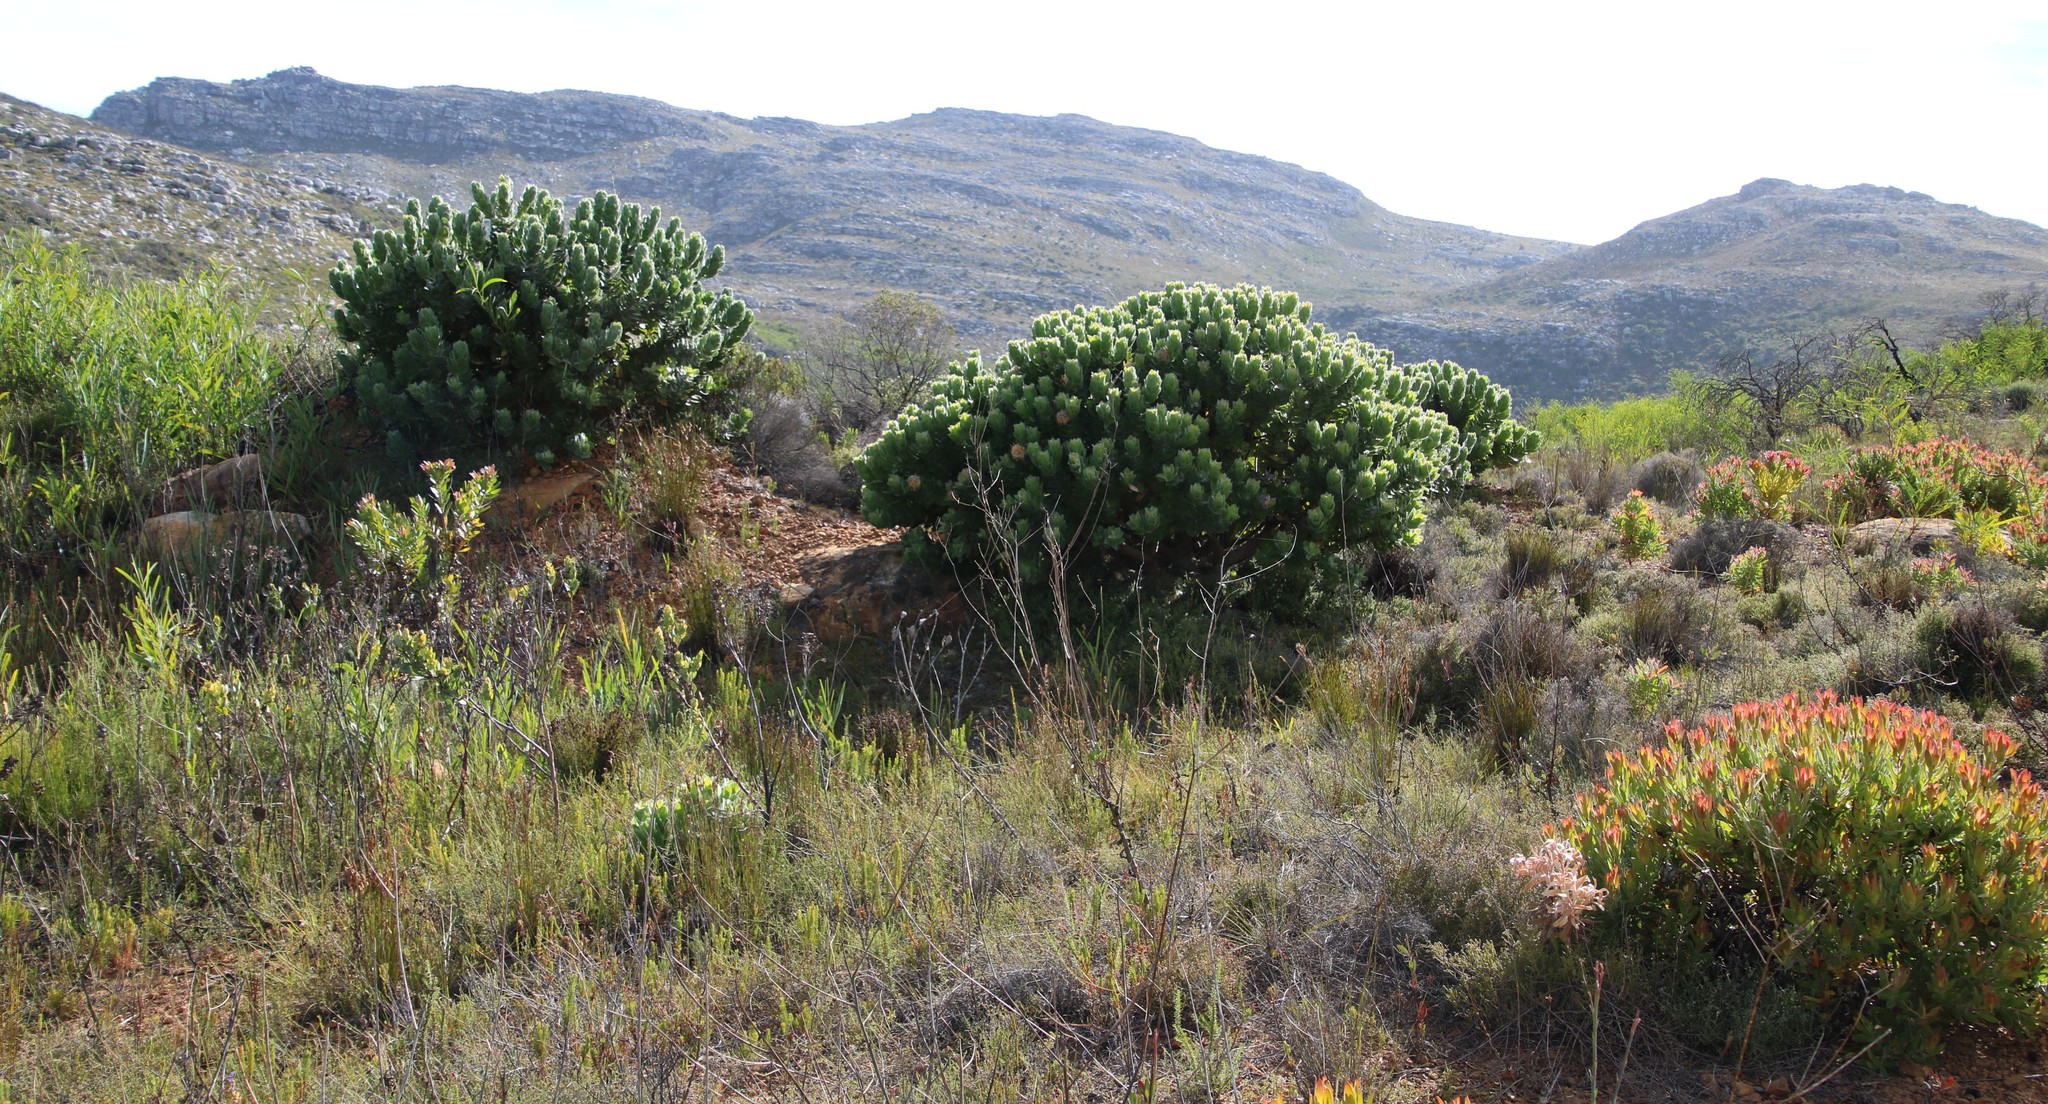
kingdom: Plantae
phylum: Tracheophyta
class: Magnoliopsida
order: Proteales
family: Proteaceae
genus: Leucospermum
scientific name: Leucospermum conocarpodendron
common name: Tree pincushion
